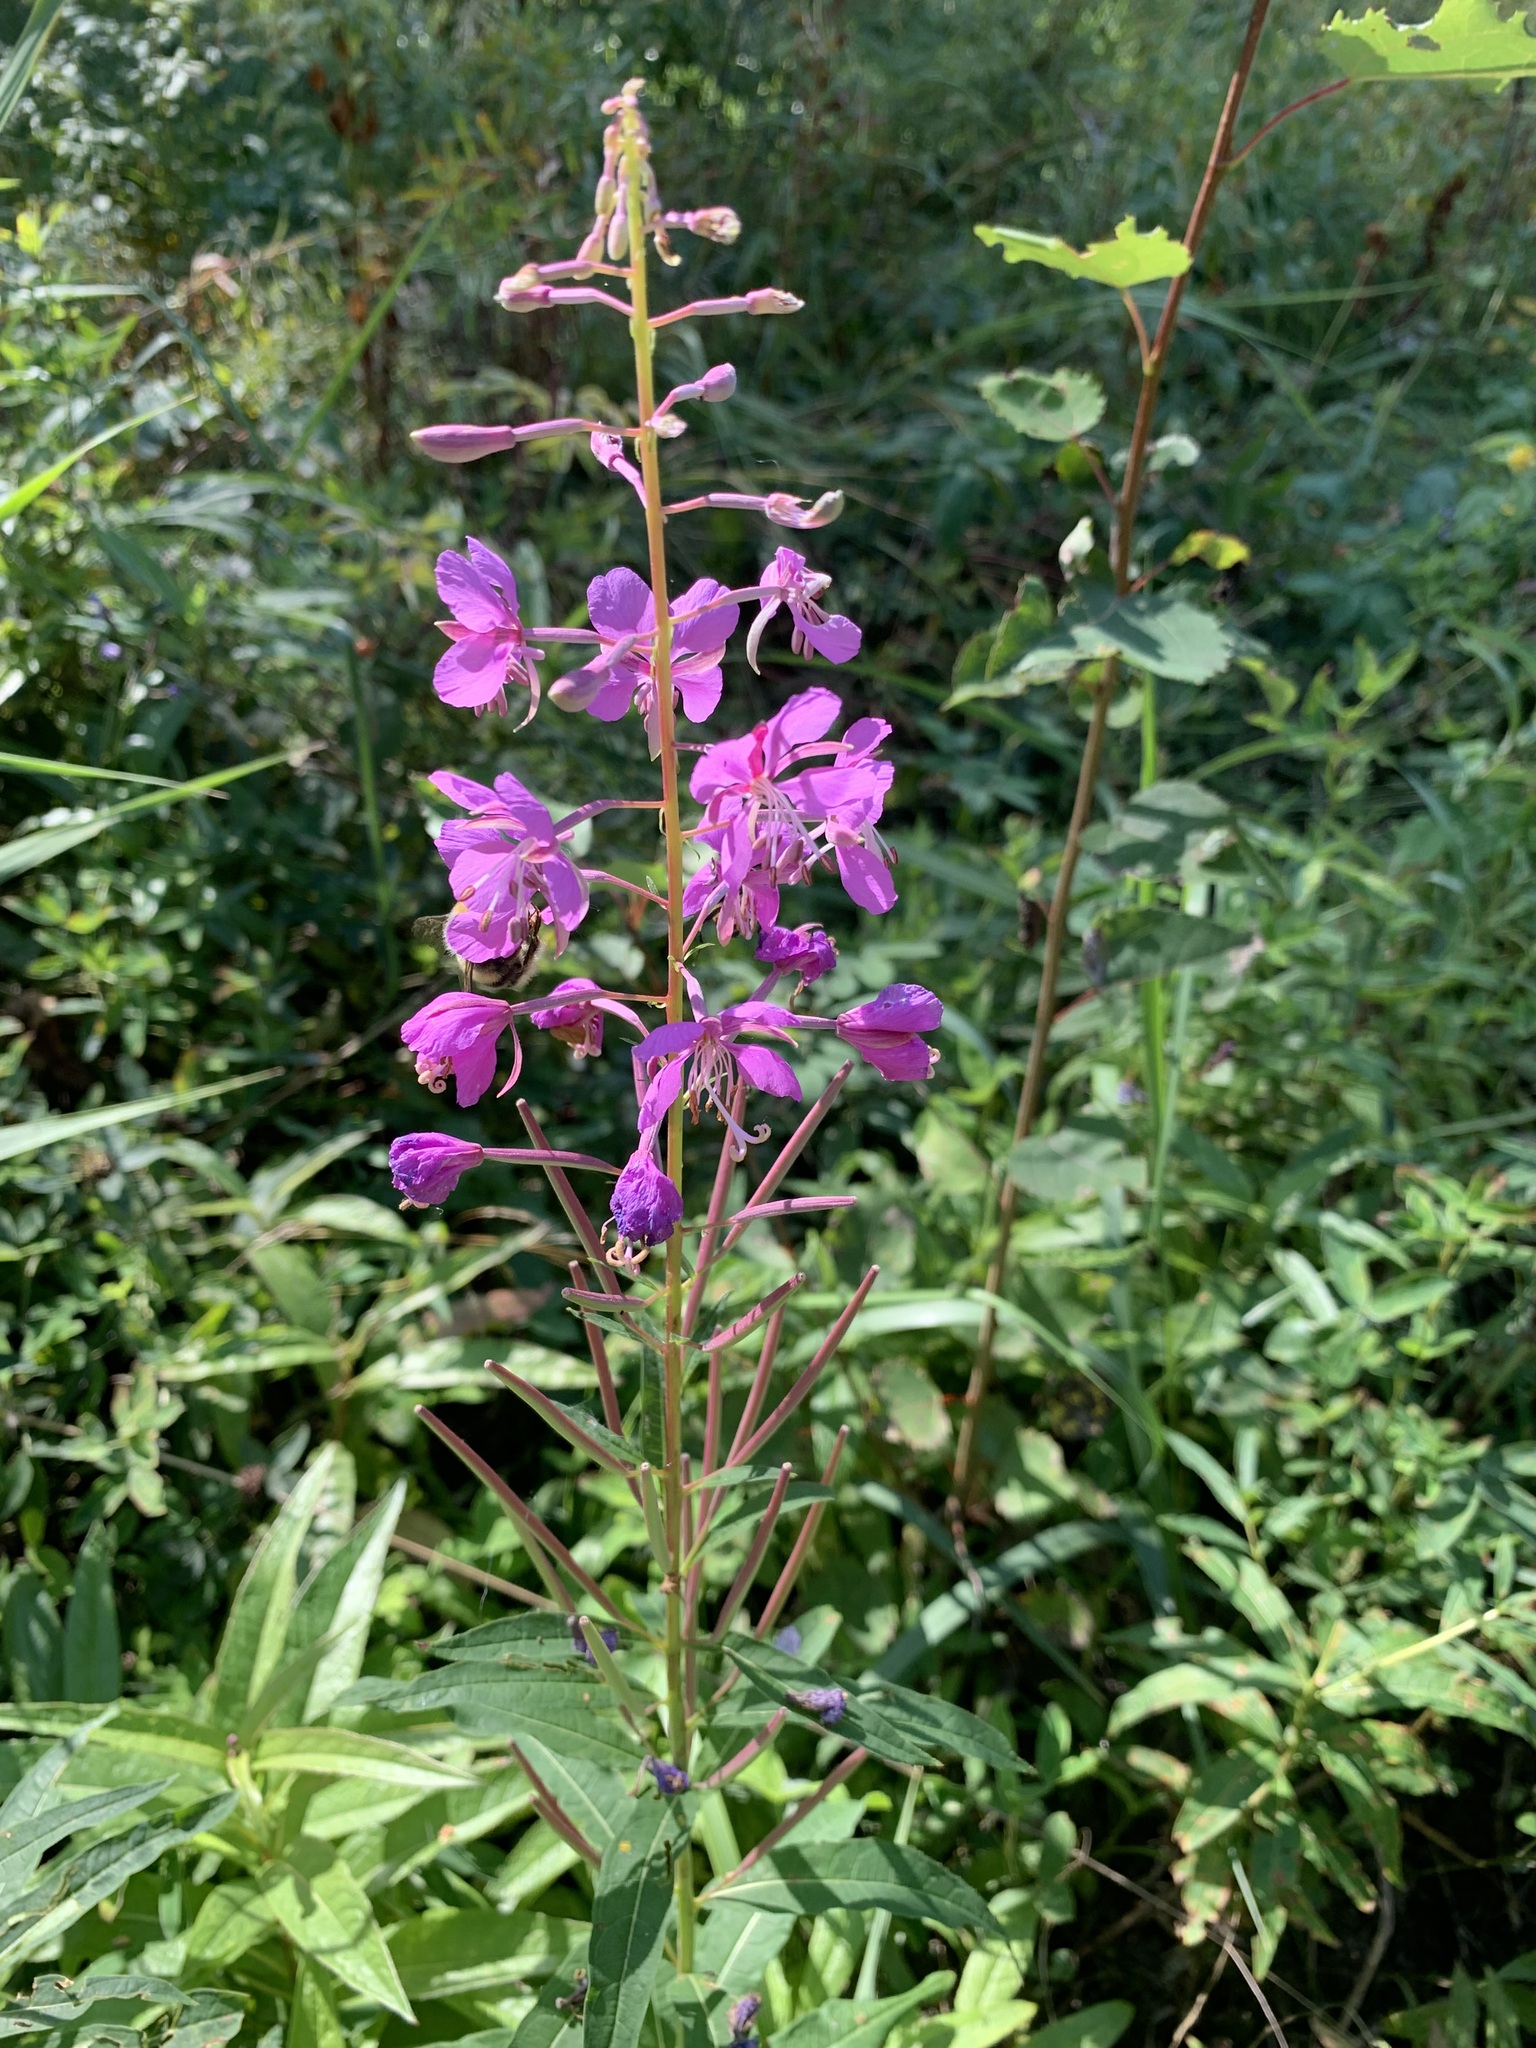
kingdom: Plantae
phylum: Tracheophyta
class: Magnoliopsida
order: Myrtales
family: Onagraceae
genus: Chamaenerion
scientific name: Chamaenerion angustifolium
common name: Fireweed
